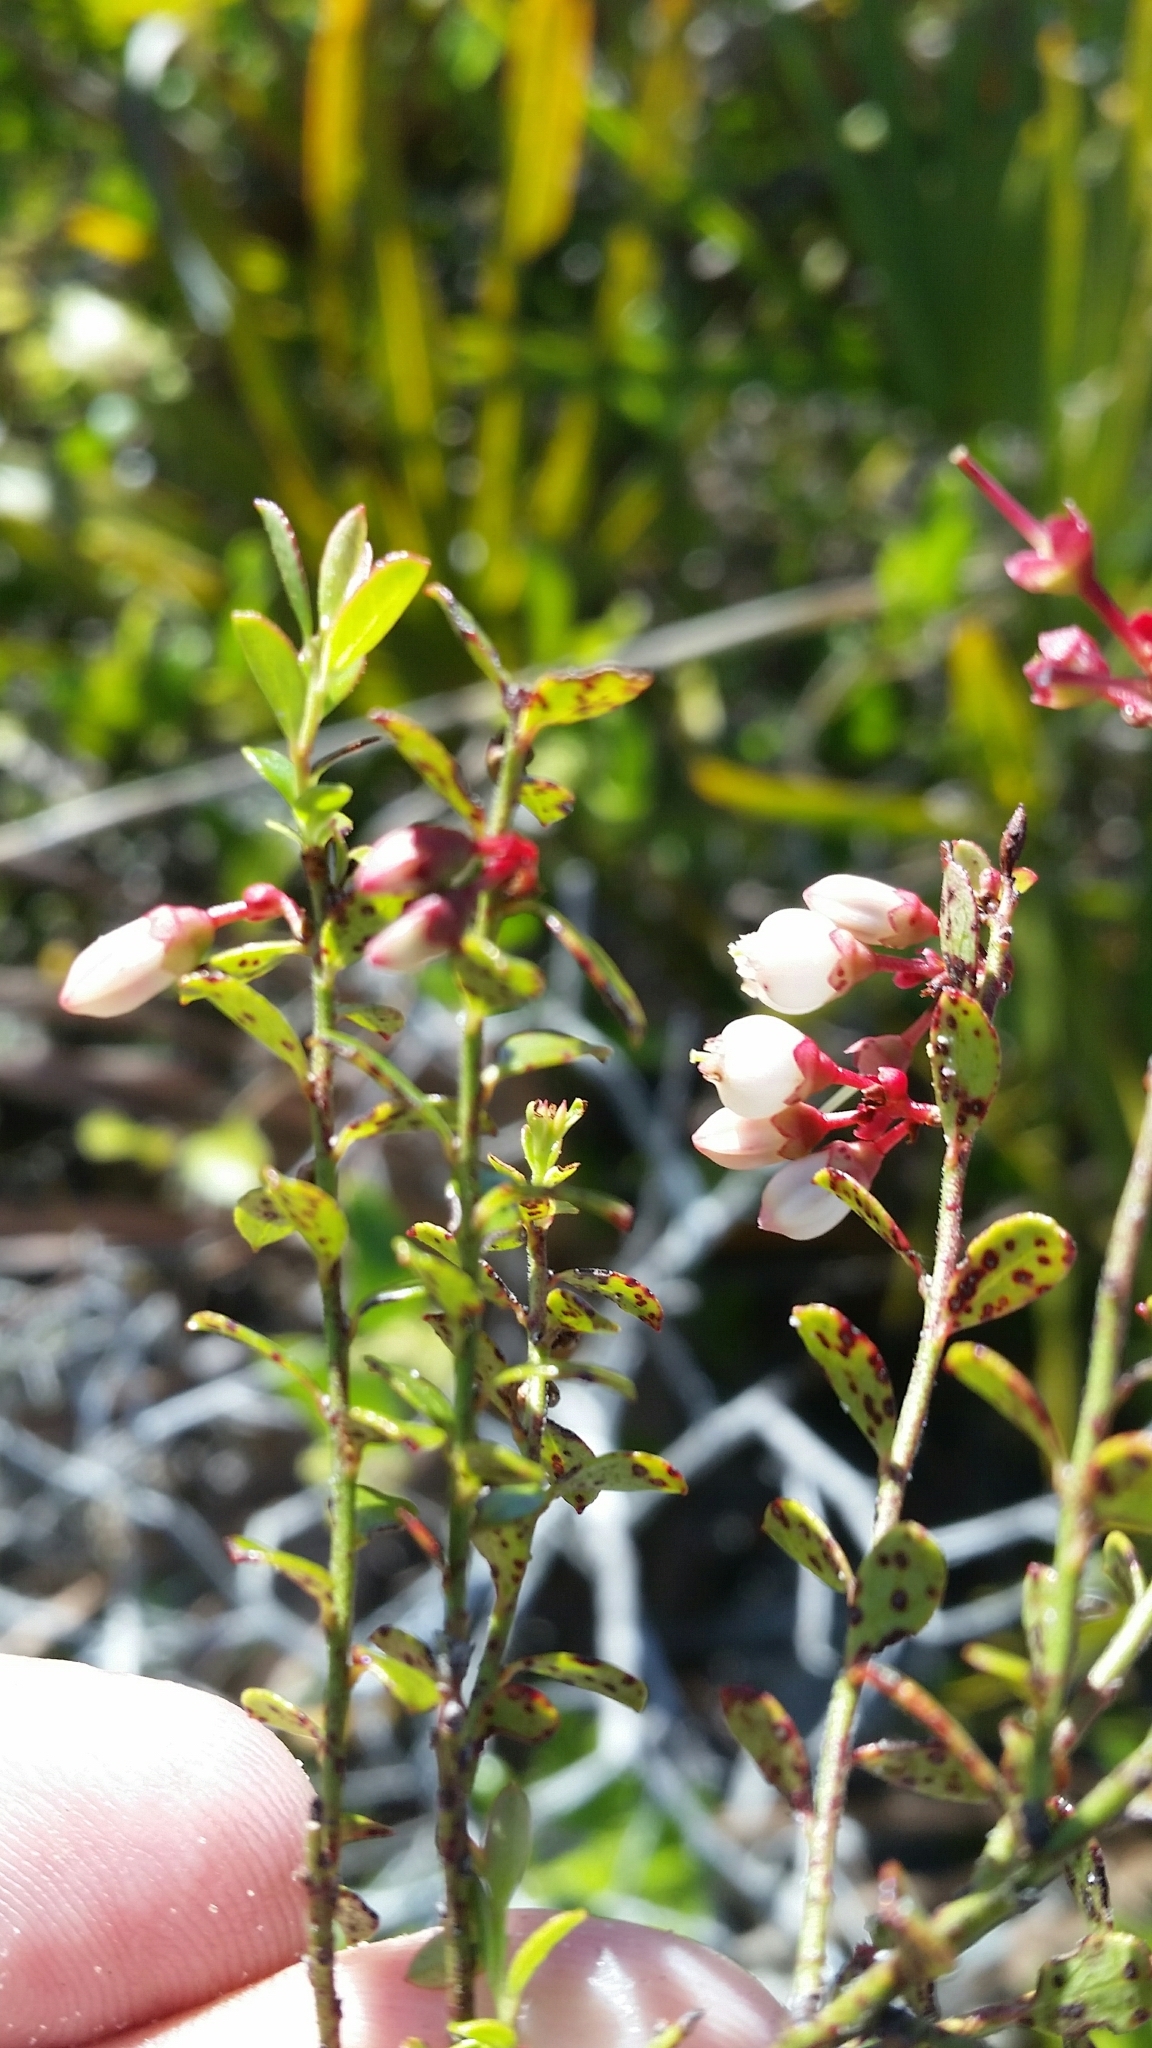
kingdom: Plantae
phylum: Tracheophyta
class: Magnoliopsida
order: Ericales
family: Ericaceae
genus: Vaccinium
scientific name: Vaccinium myrsinites
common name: Evergreen blueberry
